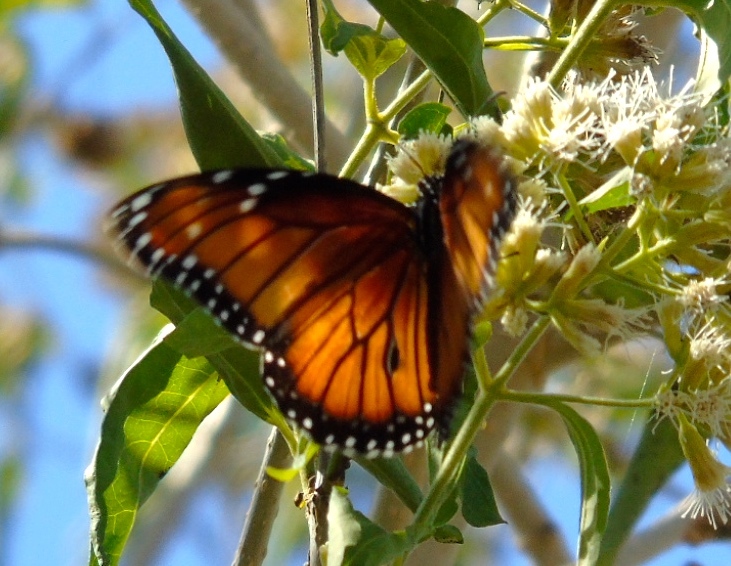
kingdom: Animalia
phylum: Arthropoda
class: Insecta
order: Lepidoptera
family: Nymphalidae
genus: Danaus
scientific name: Danaus eresimus
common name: Soldier
